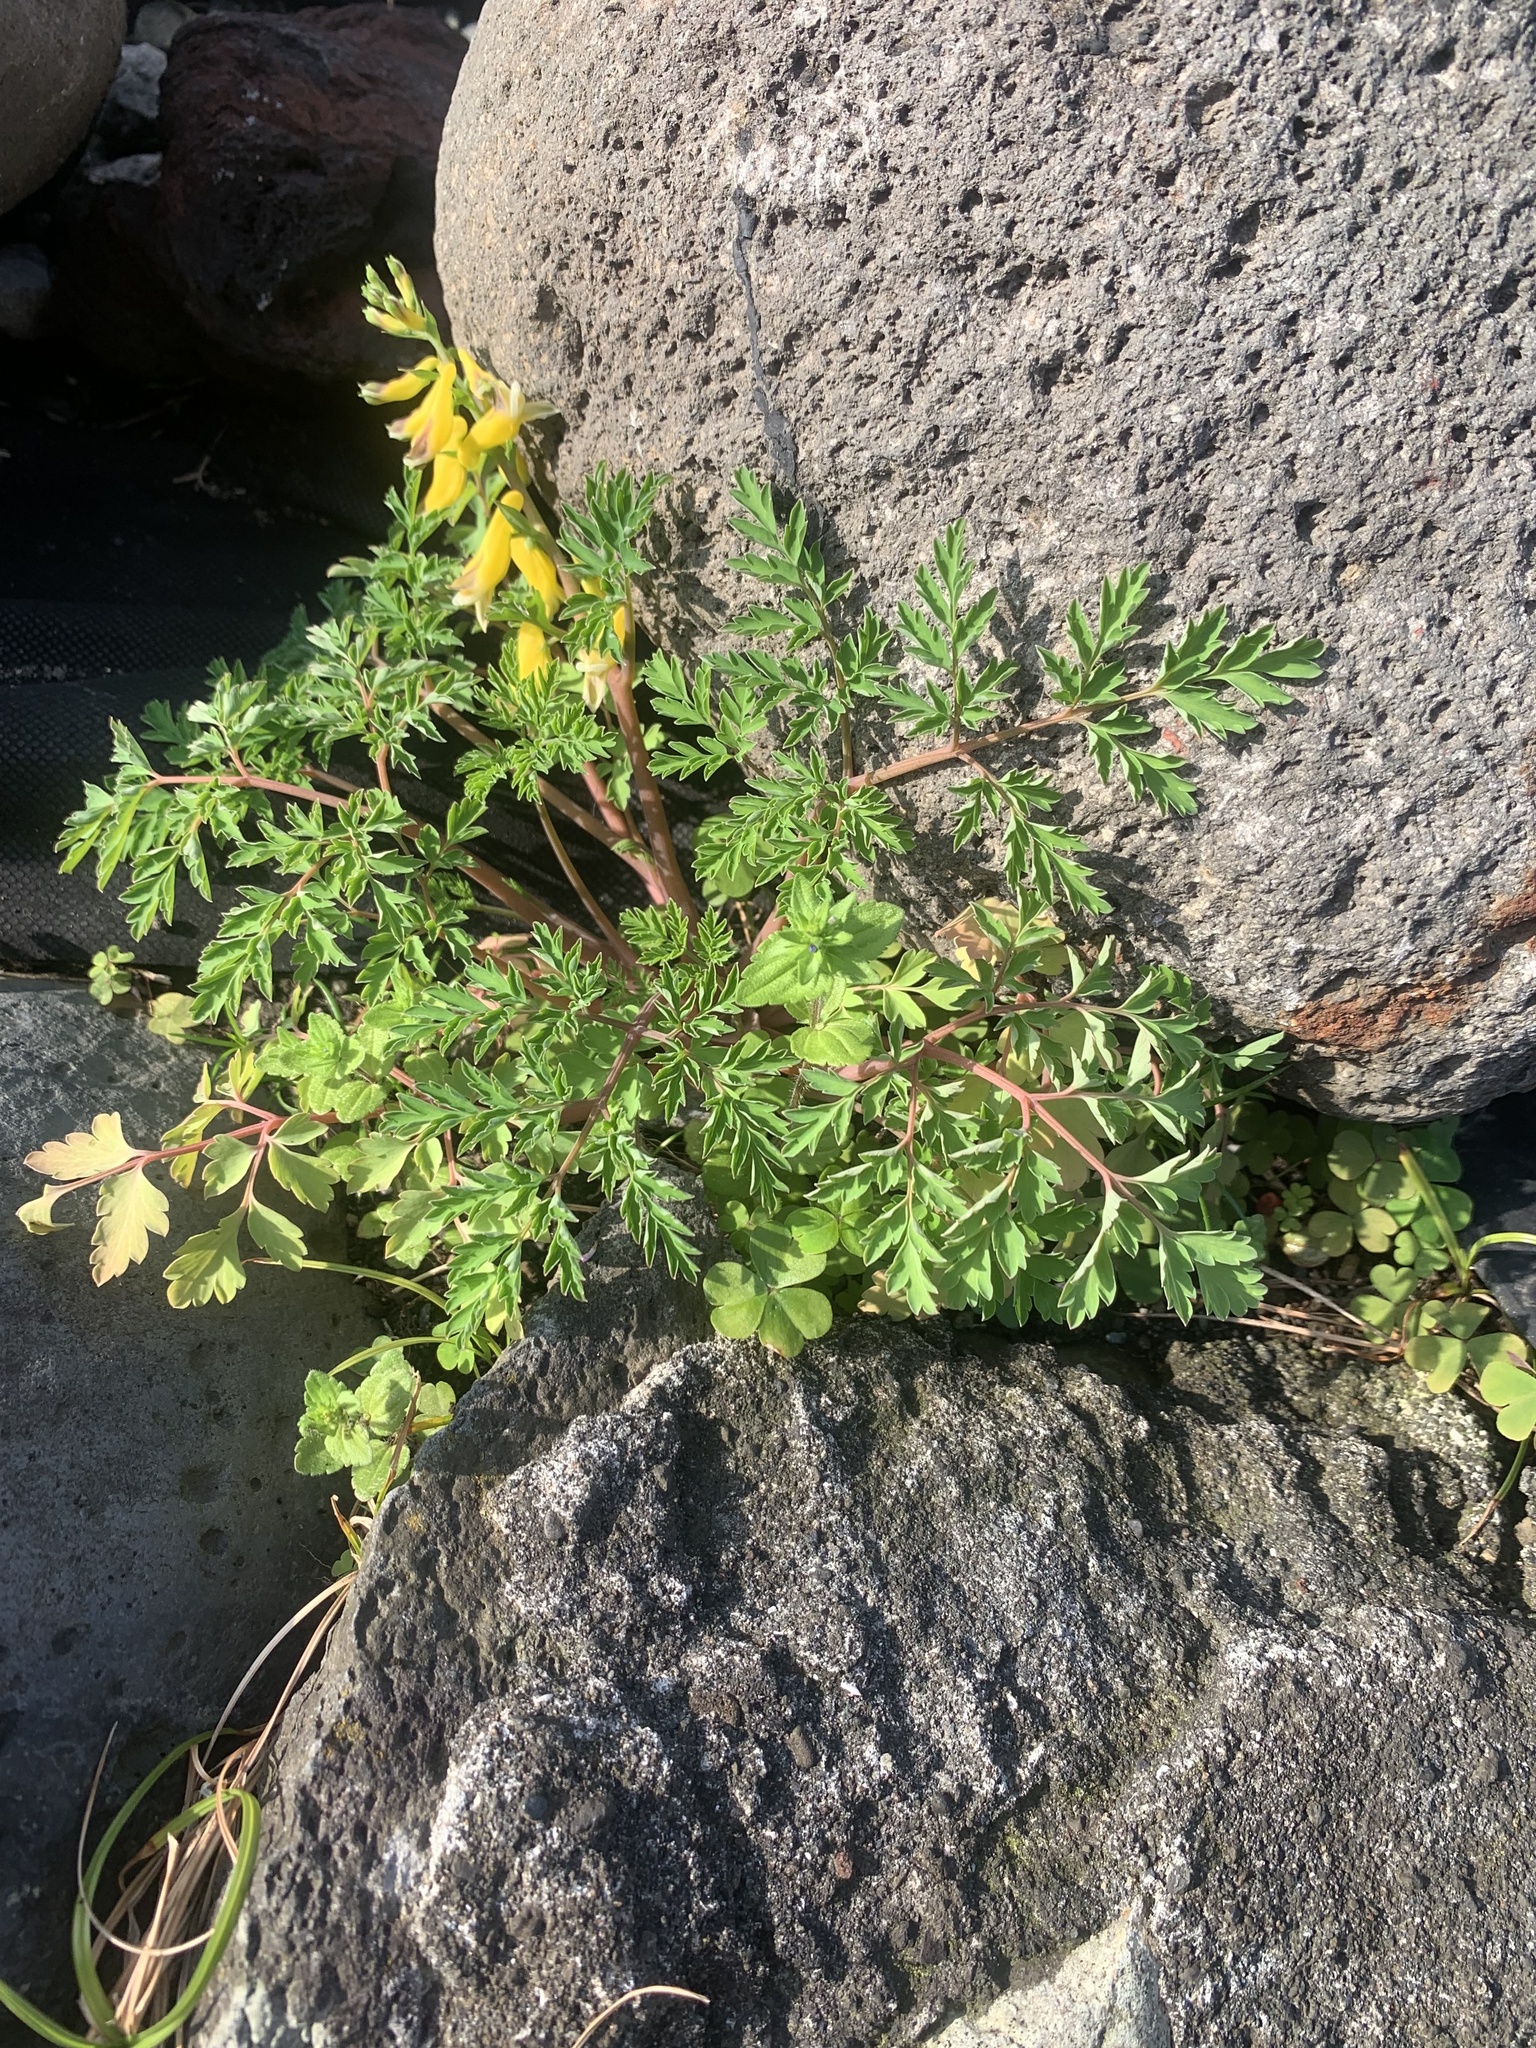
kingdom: Plantae
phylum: Tracheophyta
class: Magnoliopsida
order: Ranunculales
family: Papaveraceae
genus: Corydalis
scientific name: Corydalis heterocarpa
